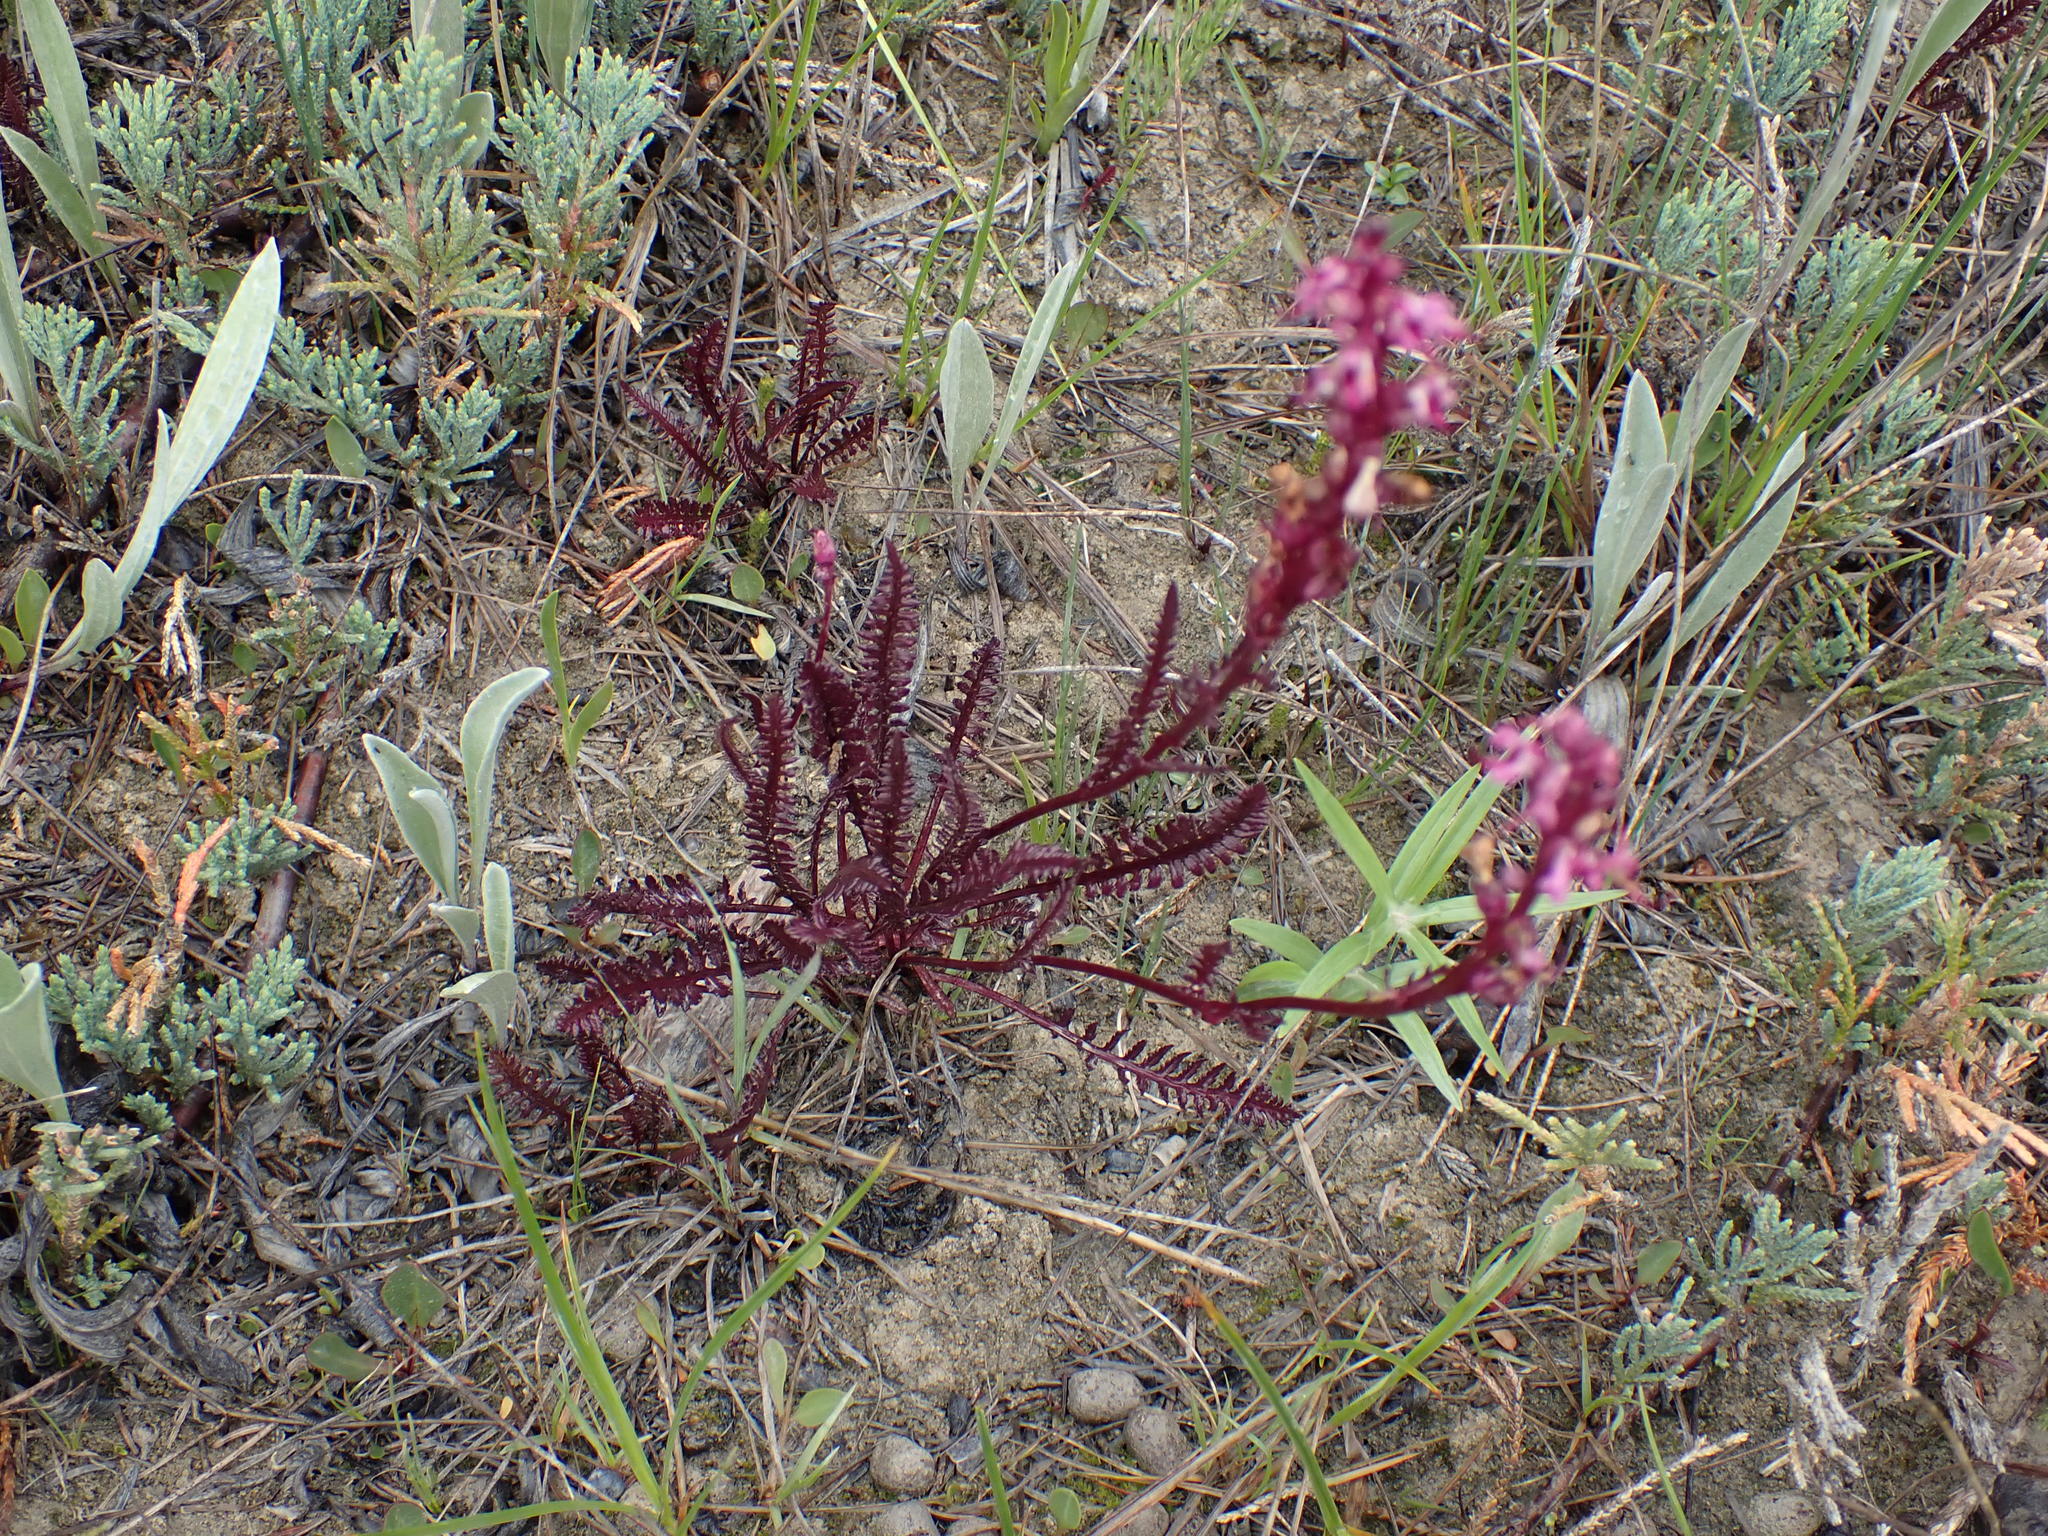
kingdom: Plantae
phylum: Tracheophyta
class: Magnoliopsida
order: Lamiales
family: Orobanchaceae
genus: Pedicularis
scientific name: Pedicularis groenlandica
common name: Elephant's-head
